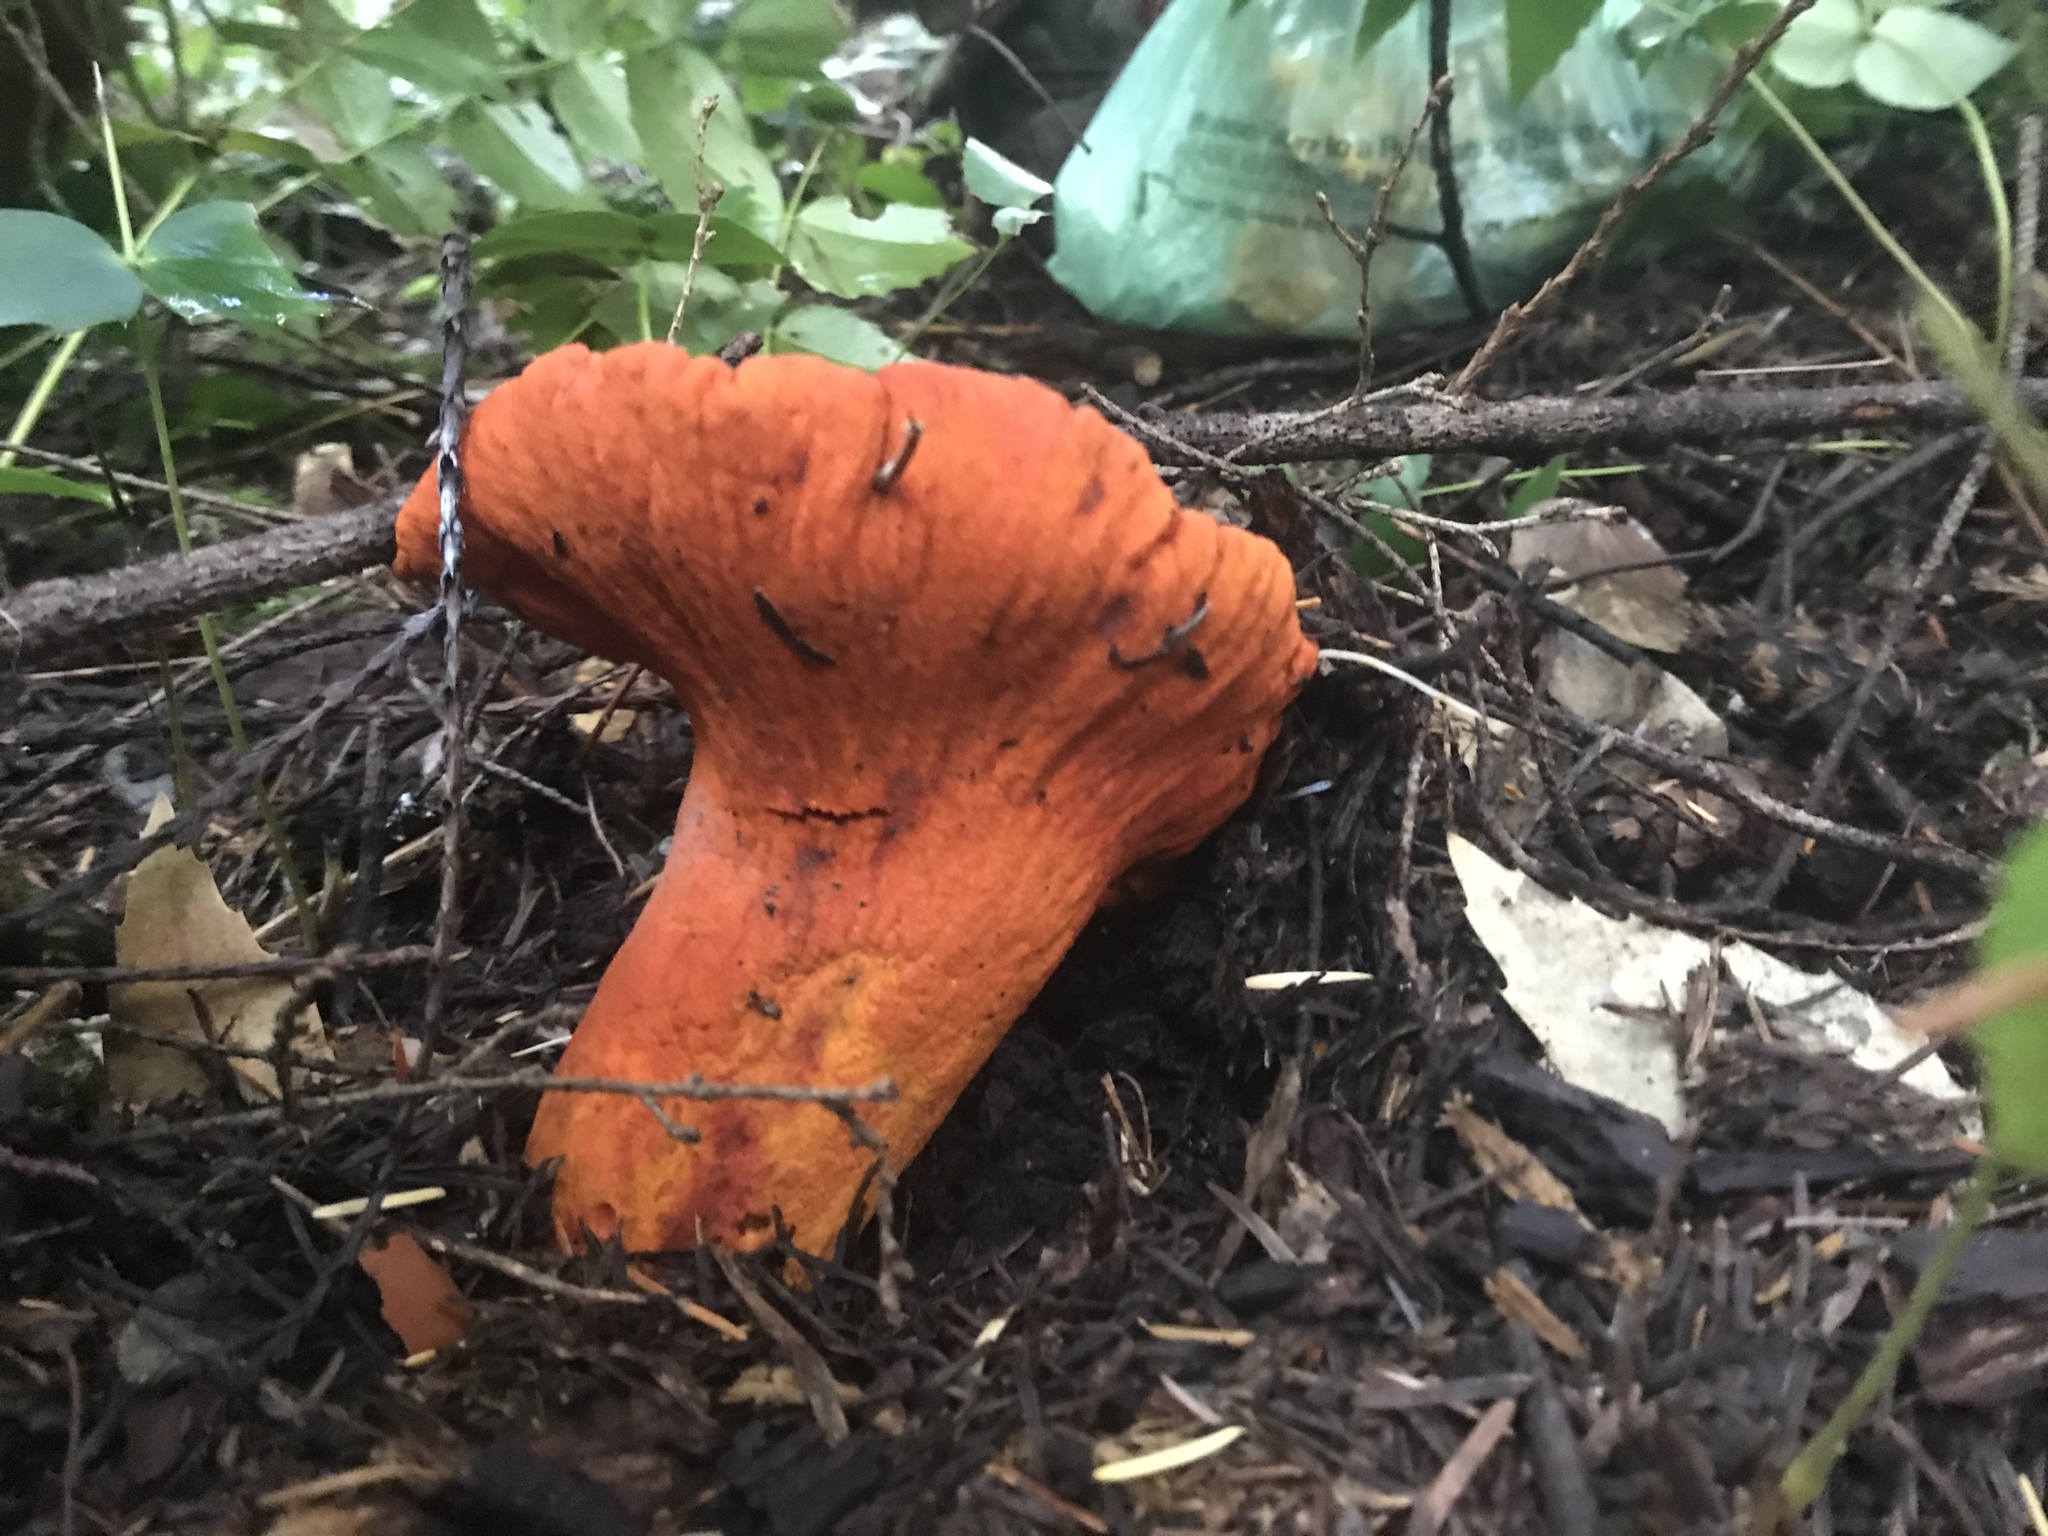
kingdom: Fungi
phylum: Ascomycota
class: Sordariomycetes
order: Hypocreales
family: Hypocreaceae
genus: Hypomyces
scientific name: Hypomyces lactifluorum
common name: Lobster mushroom
